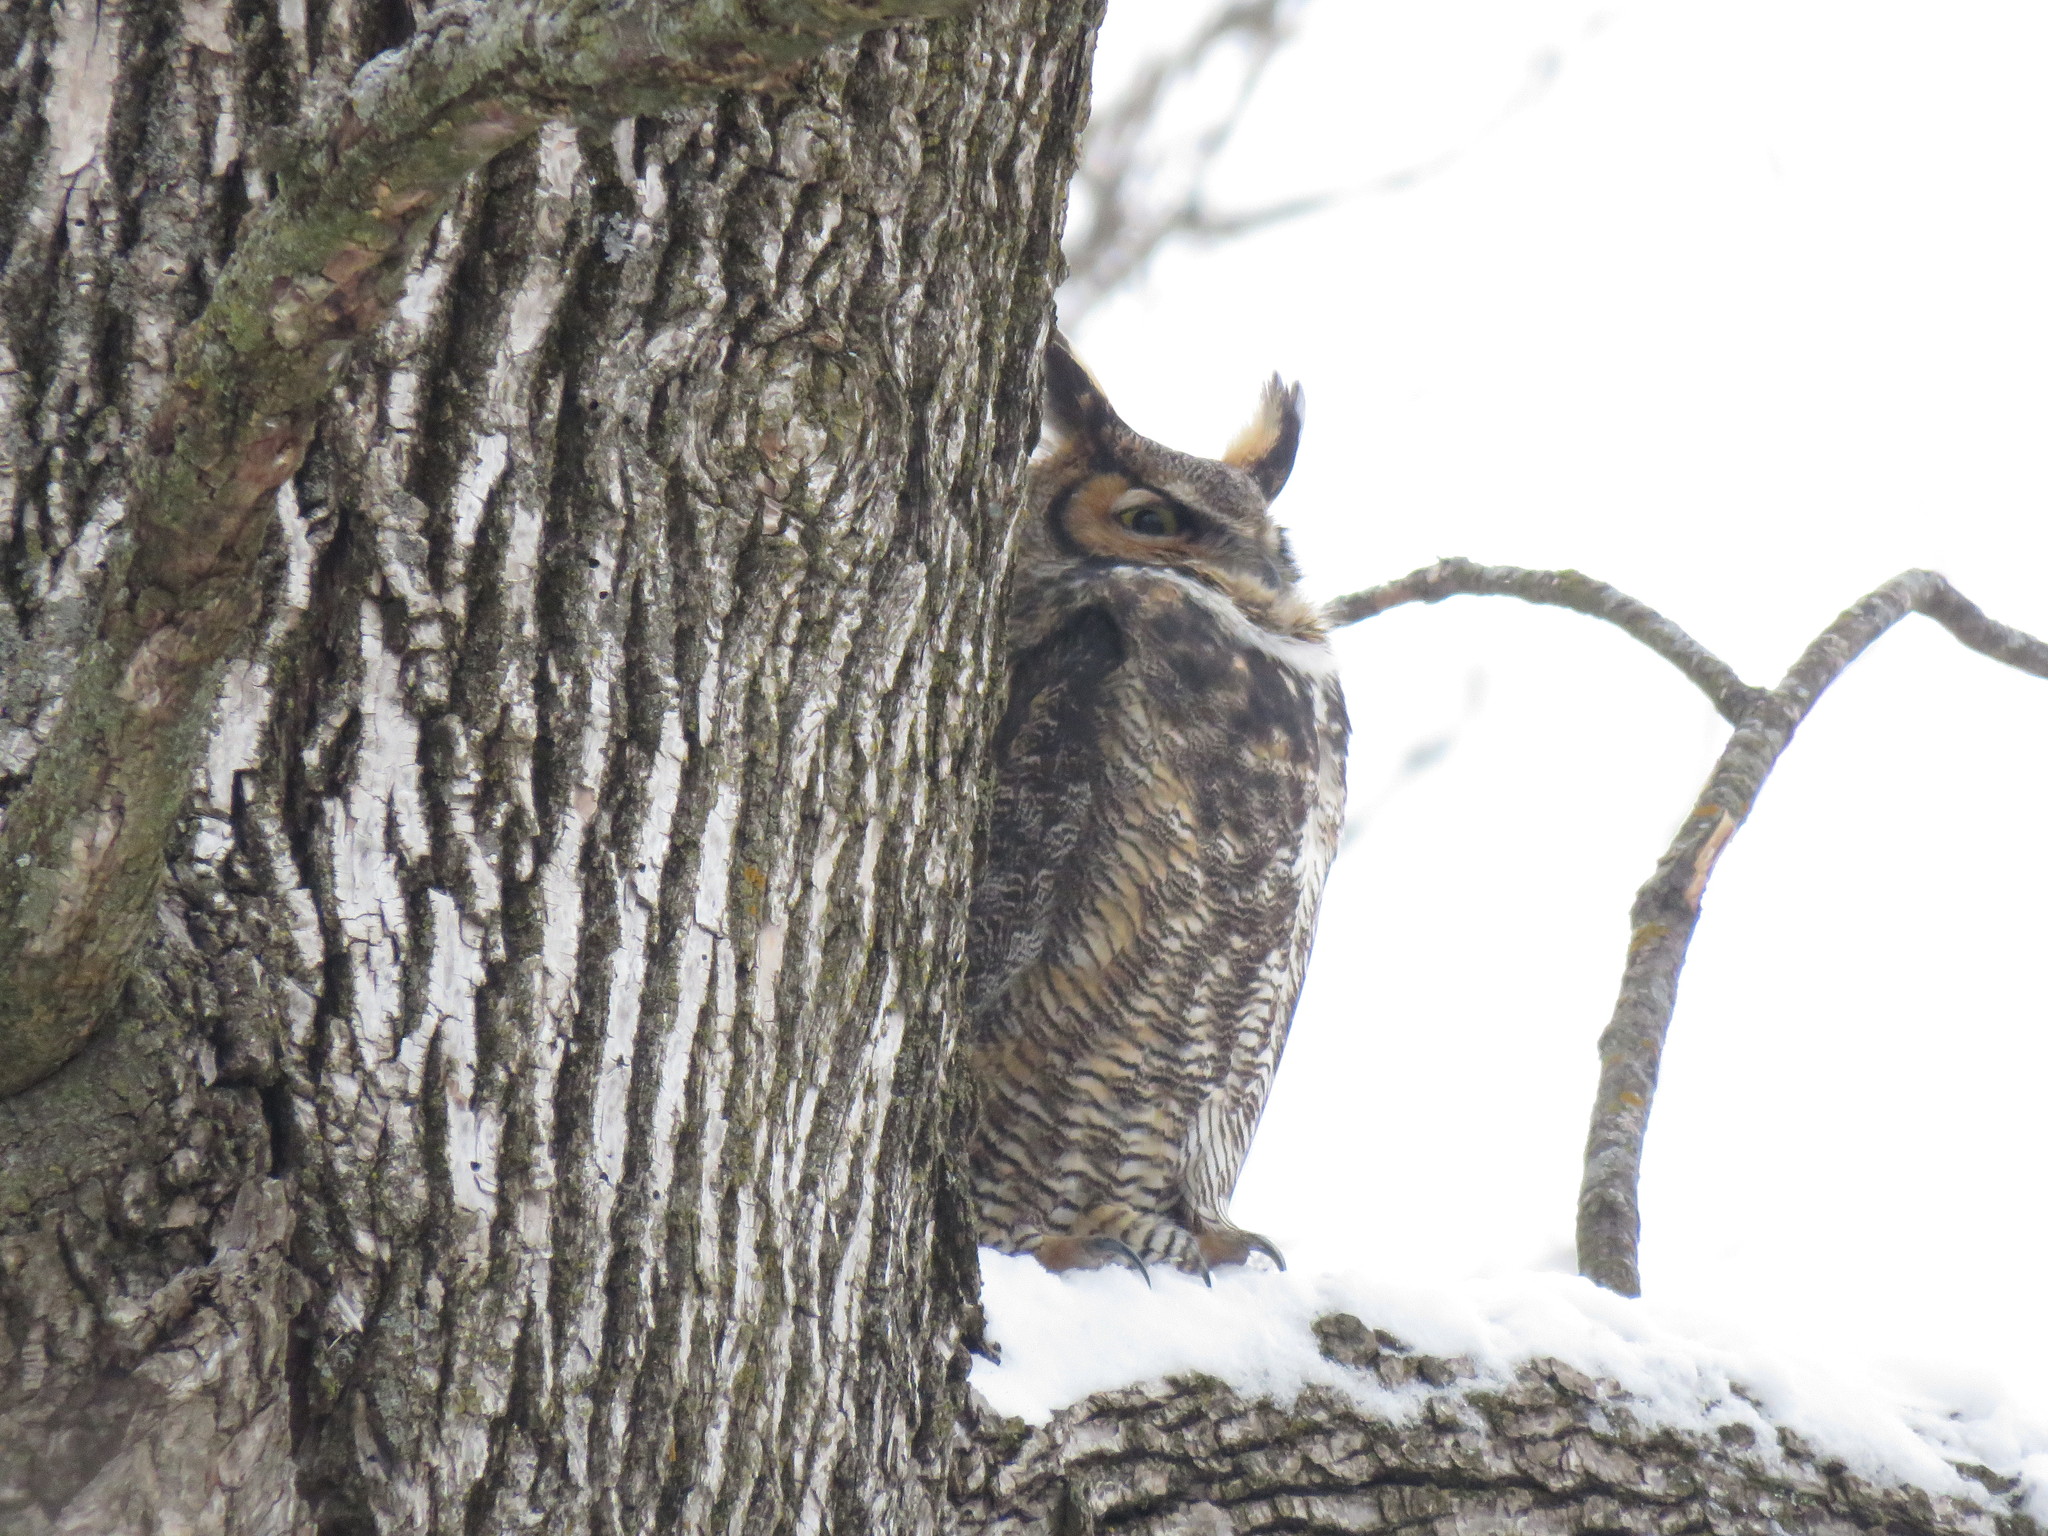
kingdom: Animalia
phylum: Chordata
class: Aves
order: Strigiformes
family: Strigidae
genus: Bubo
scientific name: Bubo virginianus
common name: Great horned owl
